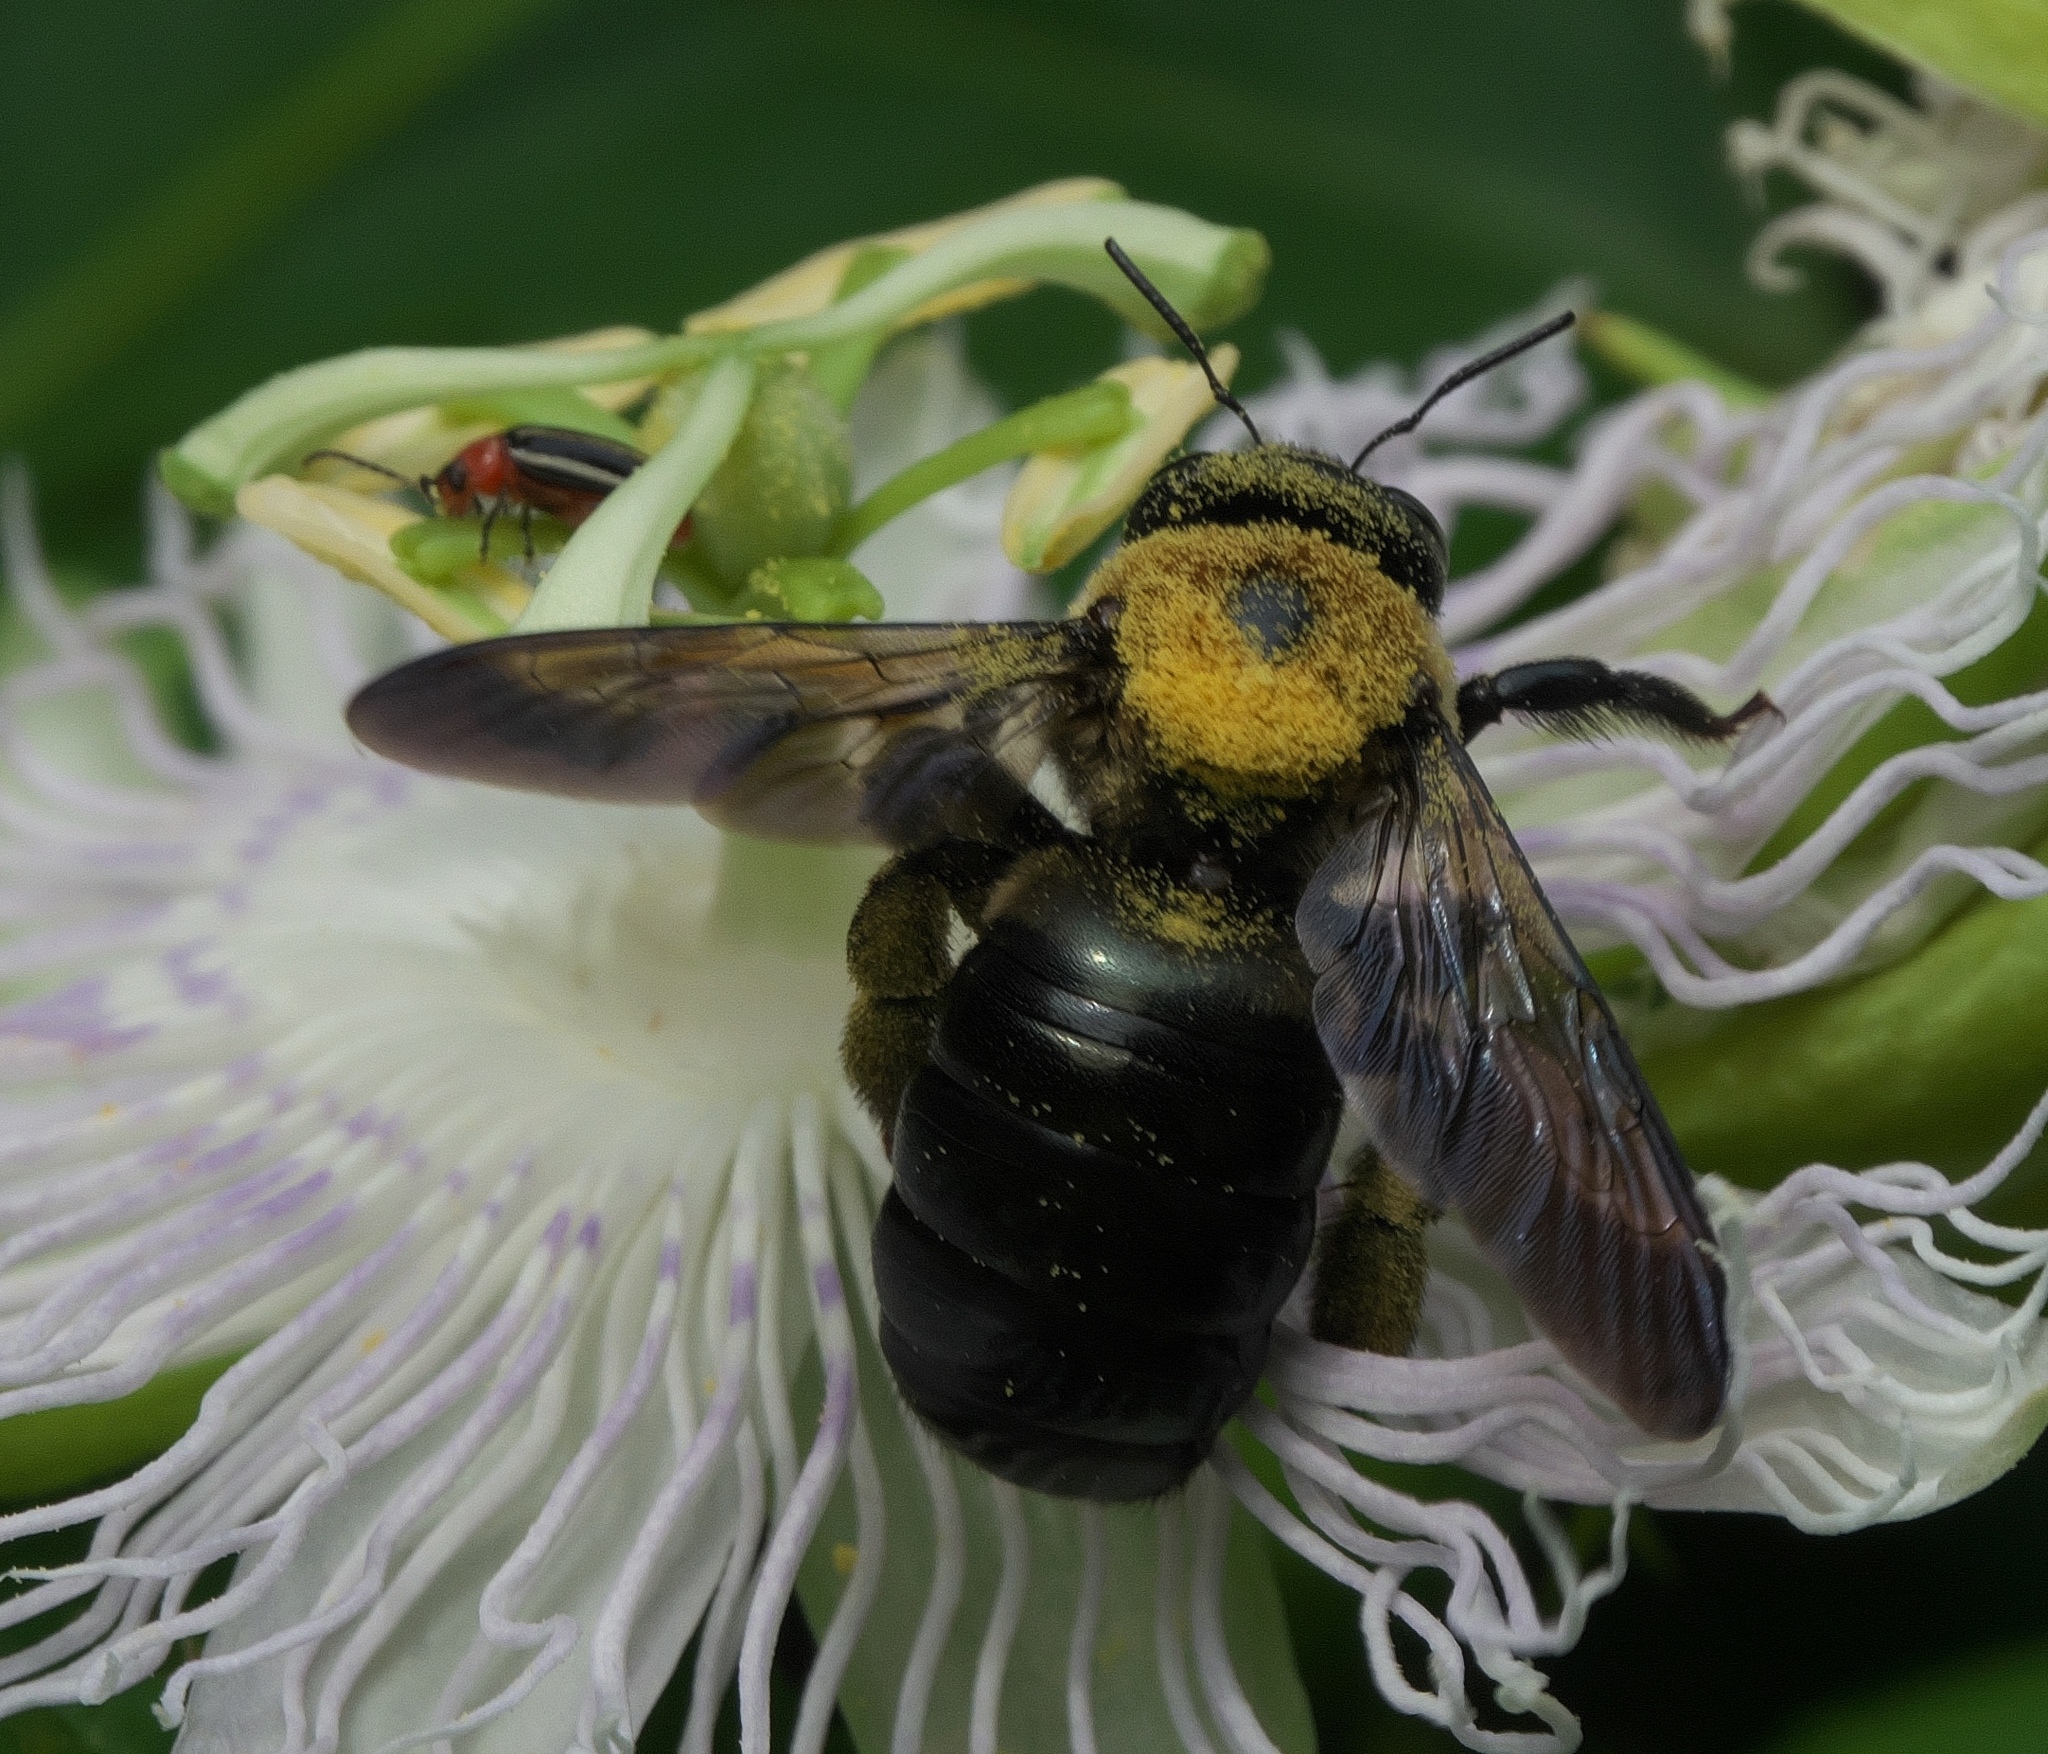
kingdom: Animalia
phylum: Arthropoda
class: Insecta
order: Hymenoptera
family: Apidae
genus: Xylocopa
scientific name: Xylocopa virginica
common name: Carpenter bee
